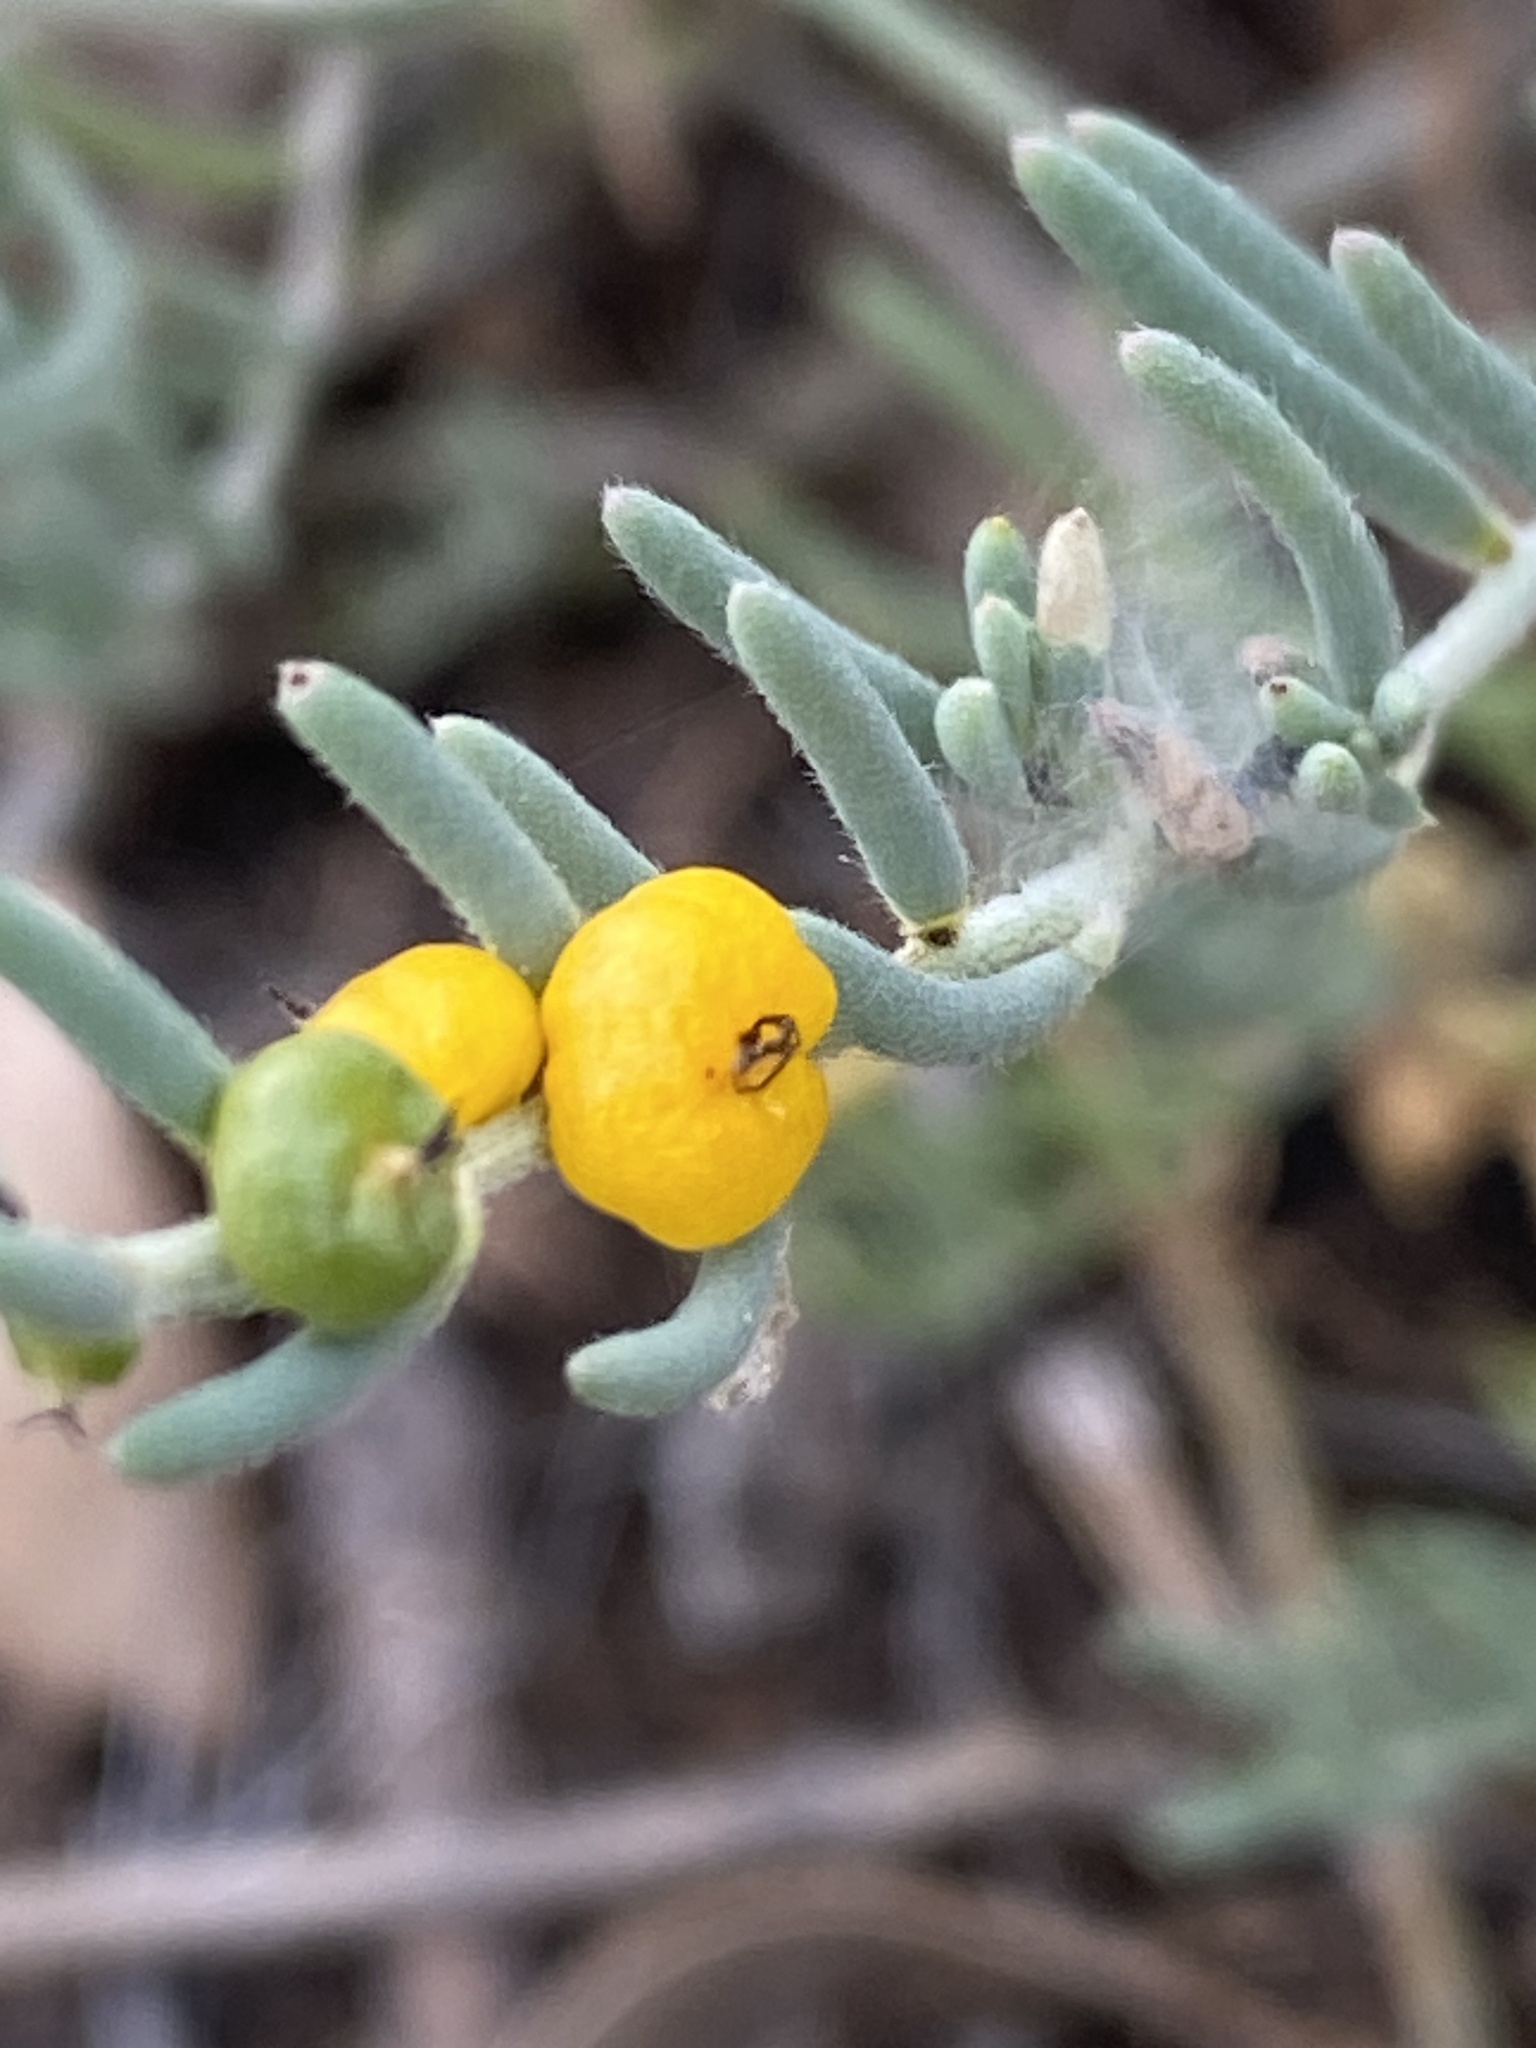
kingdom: Plantae
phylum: Tracheophyta
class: Magnoliopsida
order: Caryophyllales
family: Amaranthaceae
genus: Enchylaena
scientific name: Enchylaena tomentosa
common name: Ruby saltbush
